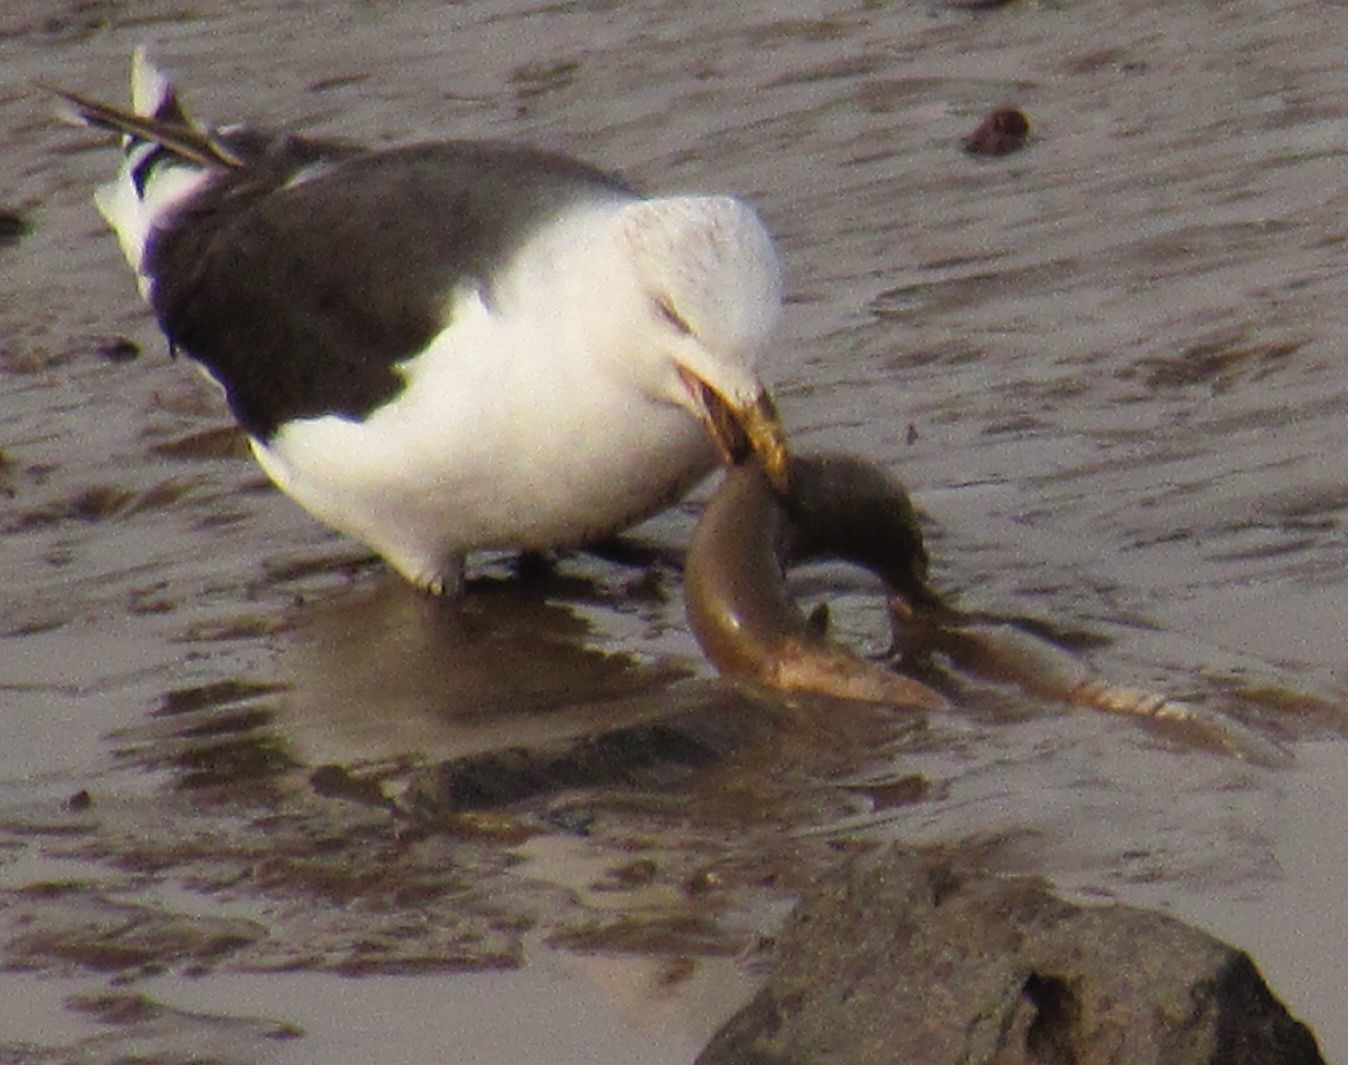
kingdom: Animalia
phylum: Chordata
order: Anguilliformes
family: Anguillidae
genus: Anguilla
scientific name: Anguilla anguilla
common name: European eel
